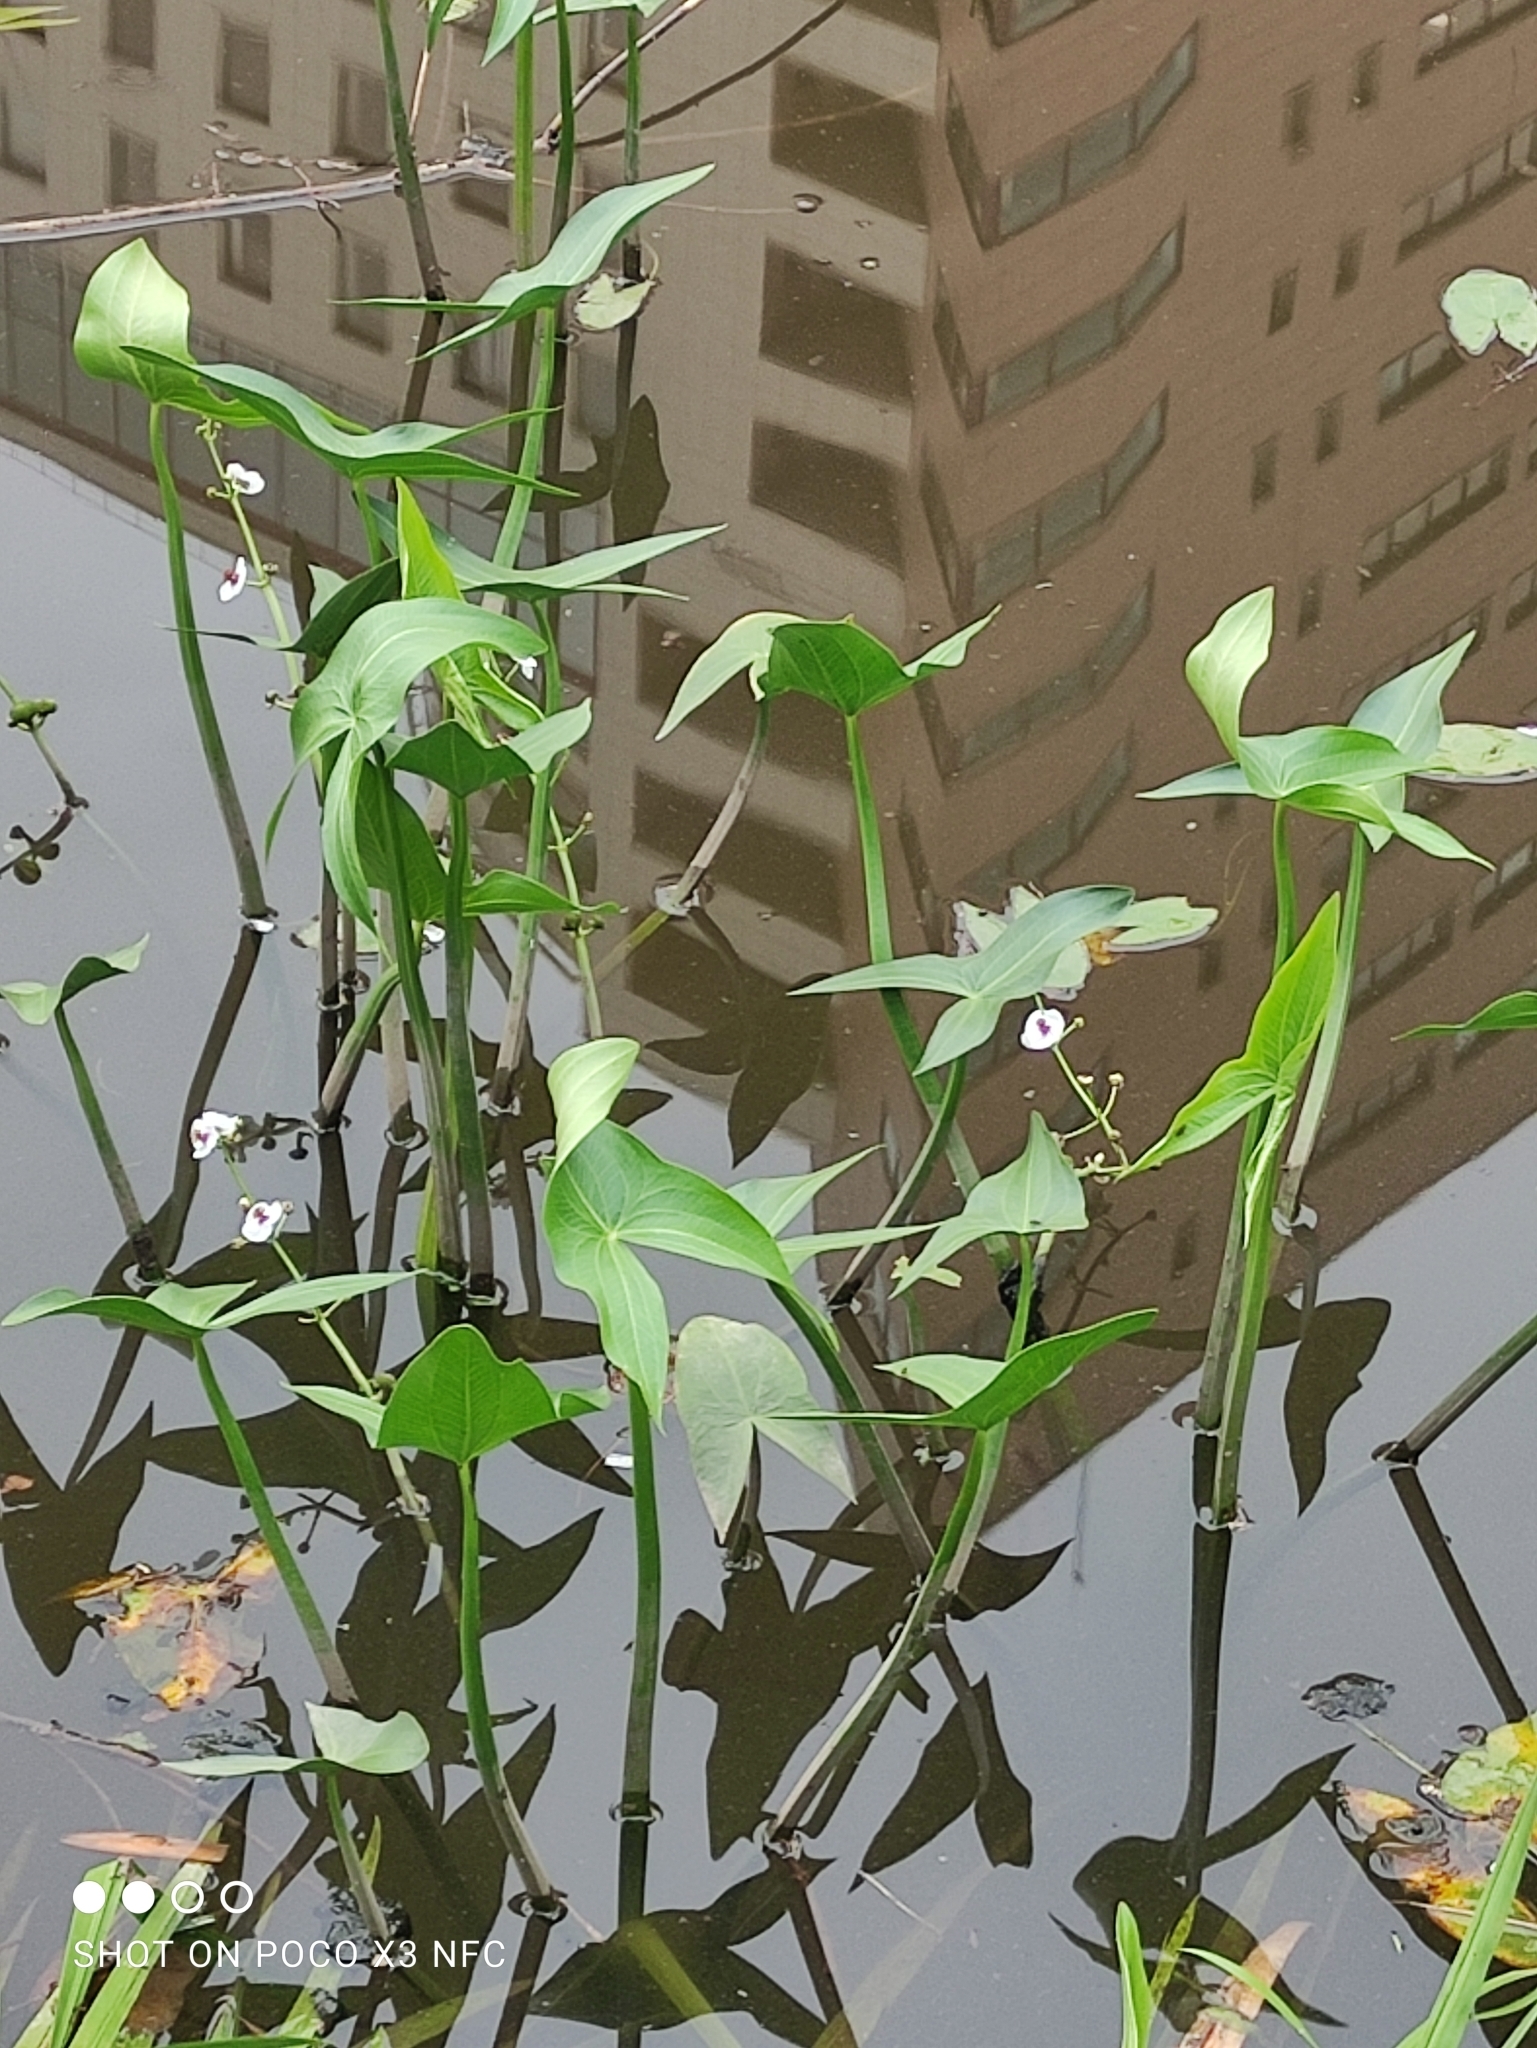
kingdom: Plantae
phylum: Tracheophyta
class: Liliopsida
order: Alismatales
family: Alismataceae
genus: Sagittaria
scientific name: Sagittaria sagittifolia
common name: Arrowhead
